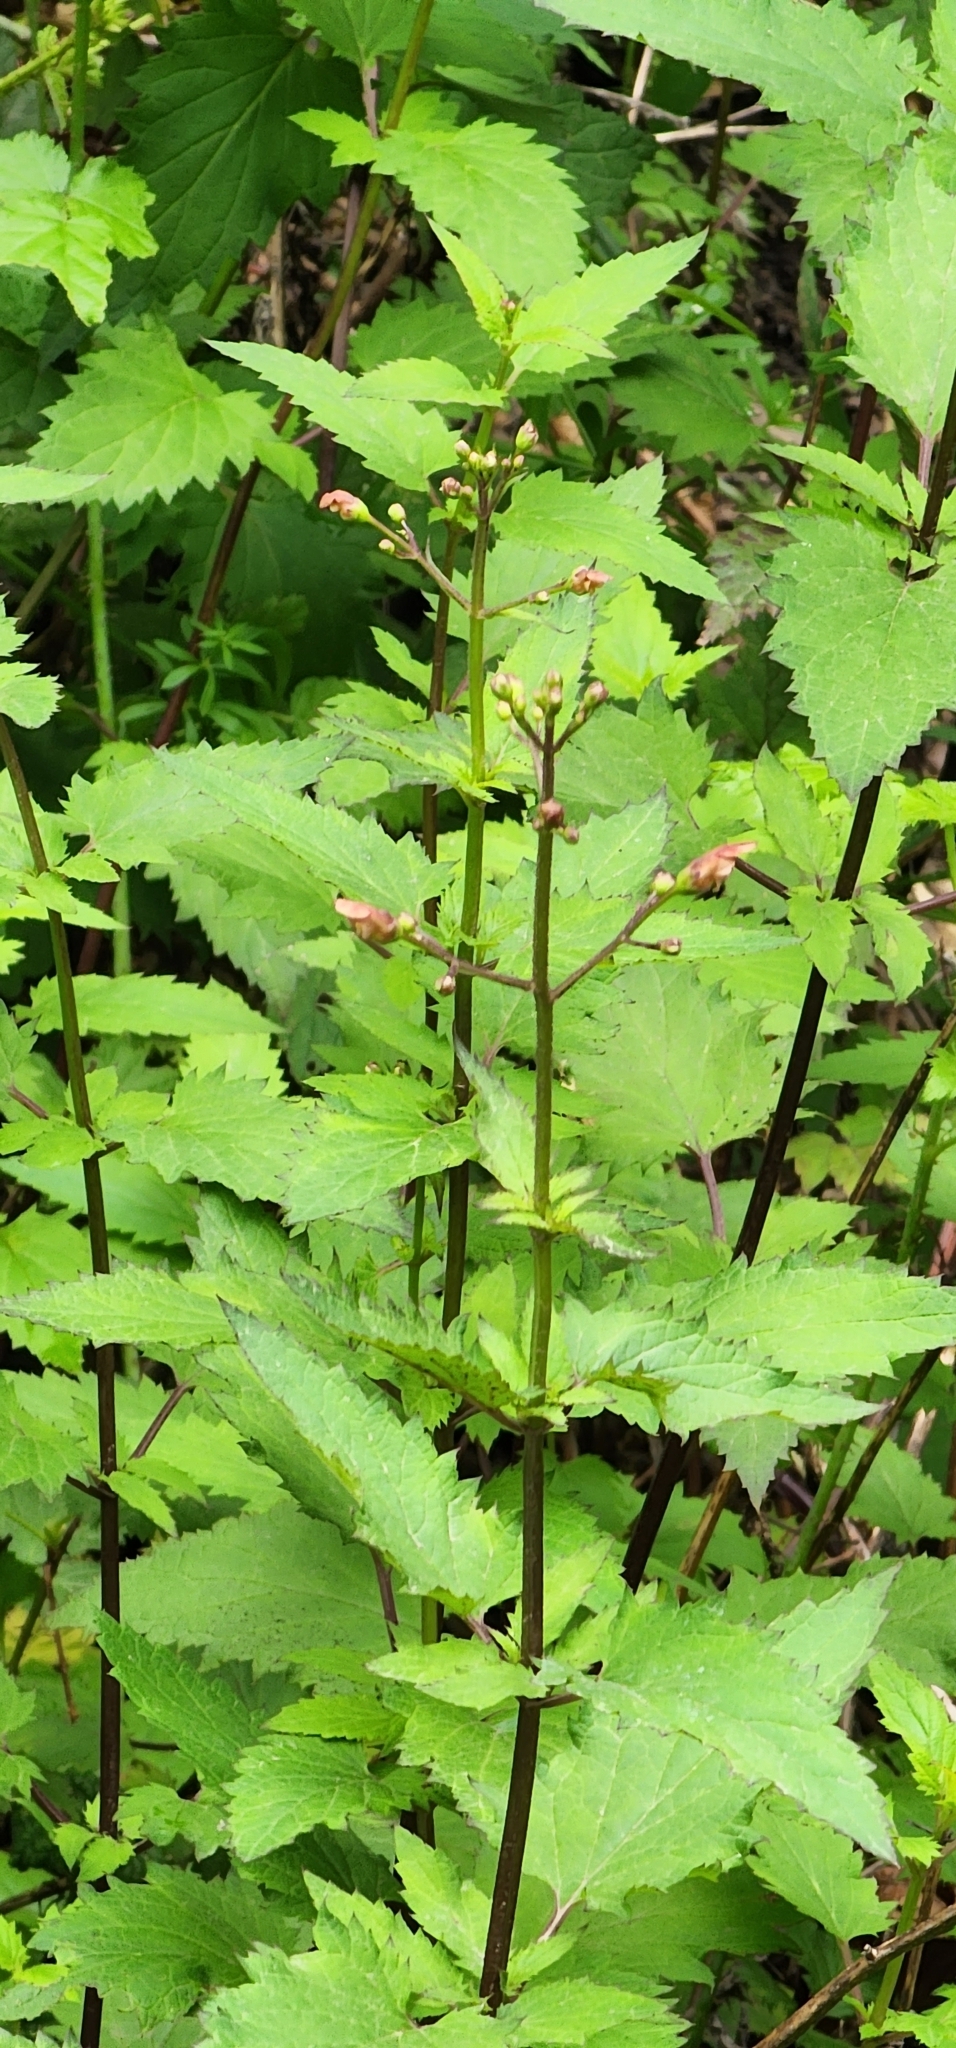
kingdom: Plantae
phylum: Tracheophyta
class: Magnoliopsida
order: Lamiales
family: Scrophulariaceae
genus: Scrophularia
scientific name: Scrophularia californica
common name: California figwort
